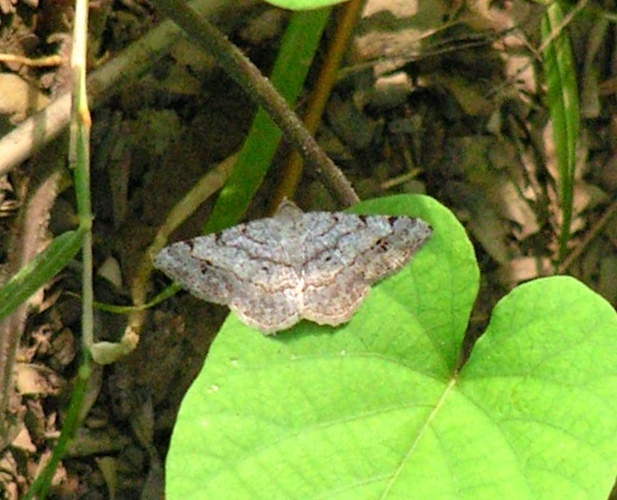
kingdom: Animalia
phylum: Arthropoda
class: Insecta
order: Lepidoptera
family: Geometridae
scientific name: Geometridae
